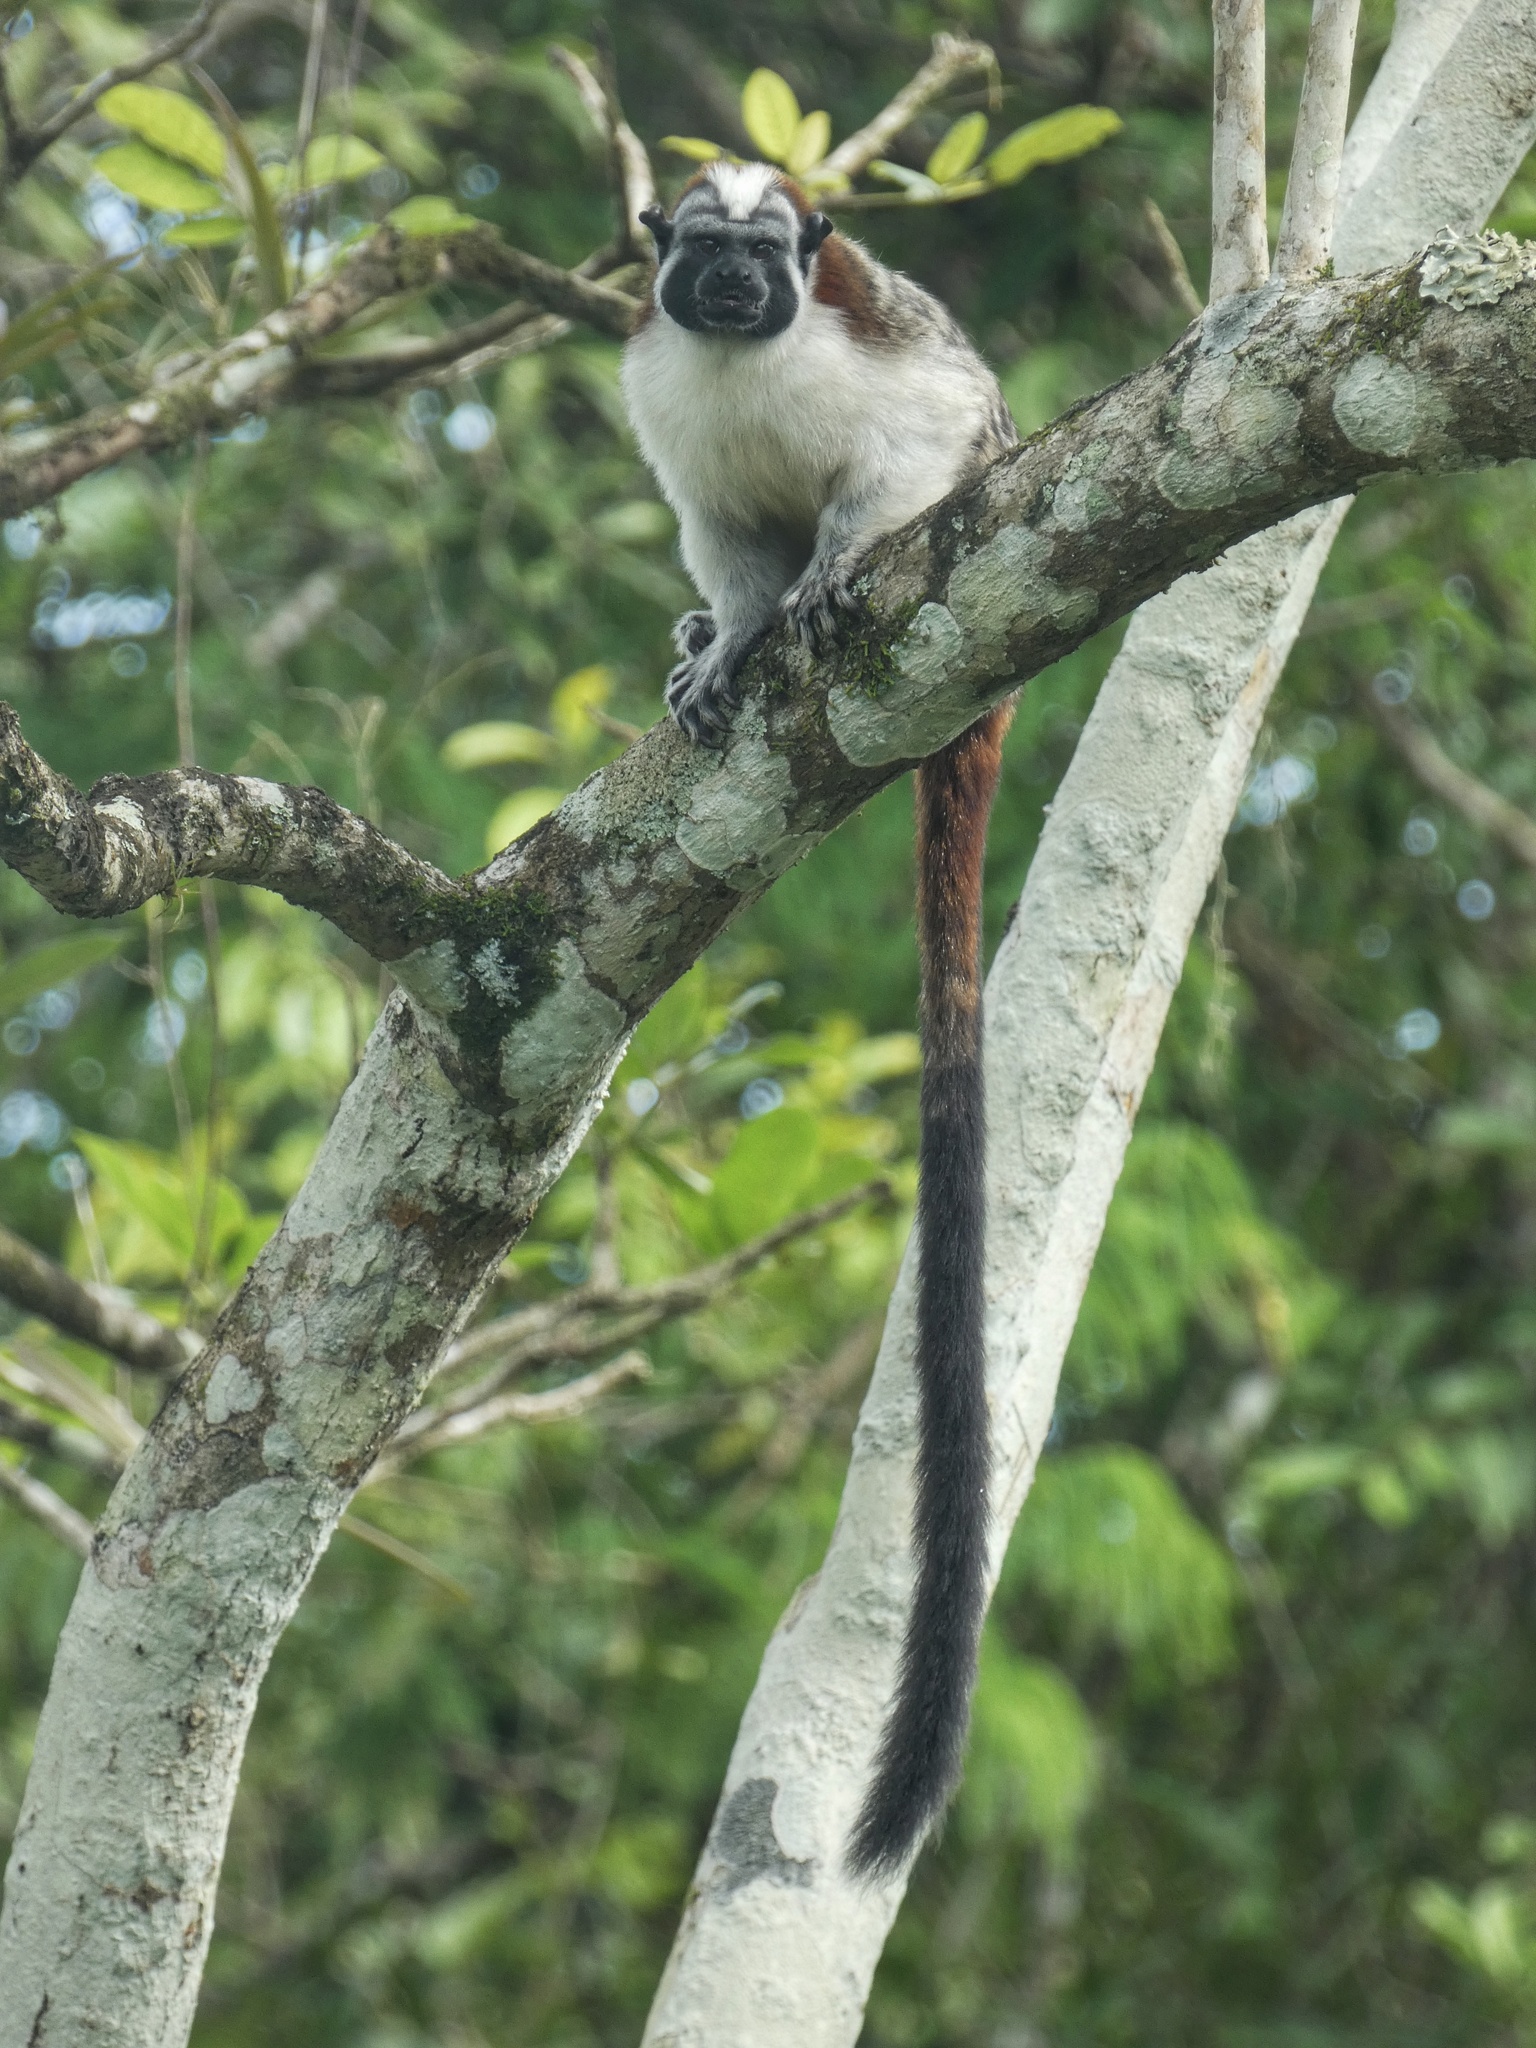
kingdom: Animalia
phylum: Chordata
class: Mammalia
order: Primates
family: Callitrichidae
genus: Saguinus
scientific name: Saguinus geoffroyi
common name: Geoffroy s tamarin
